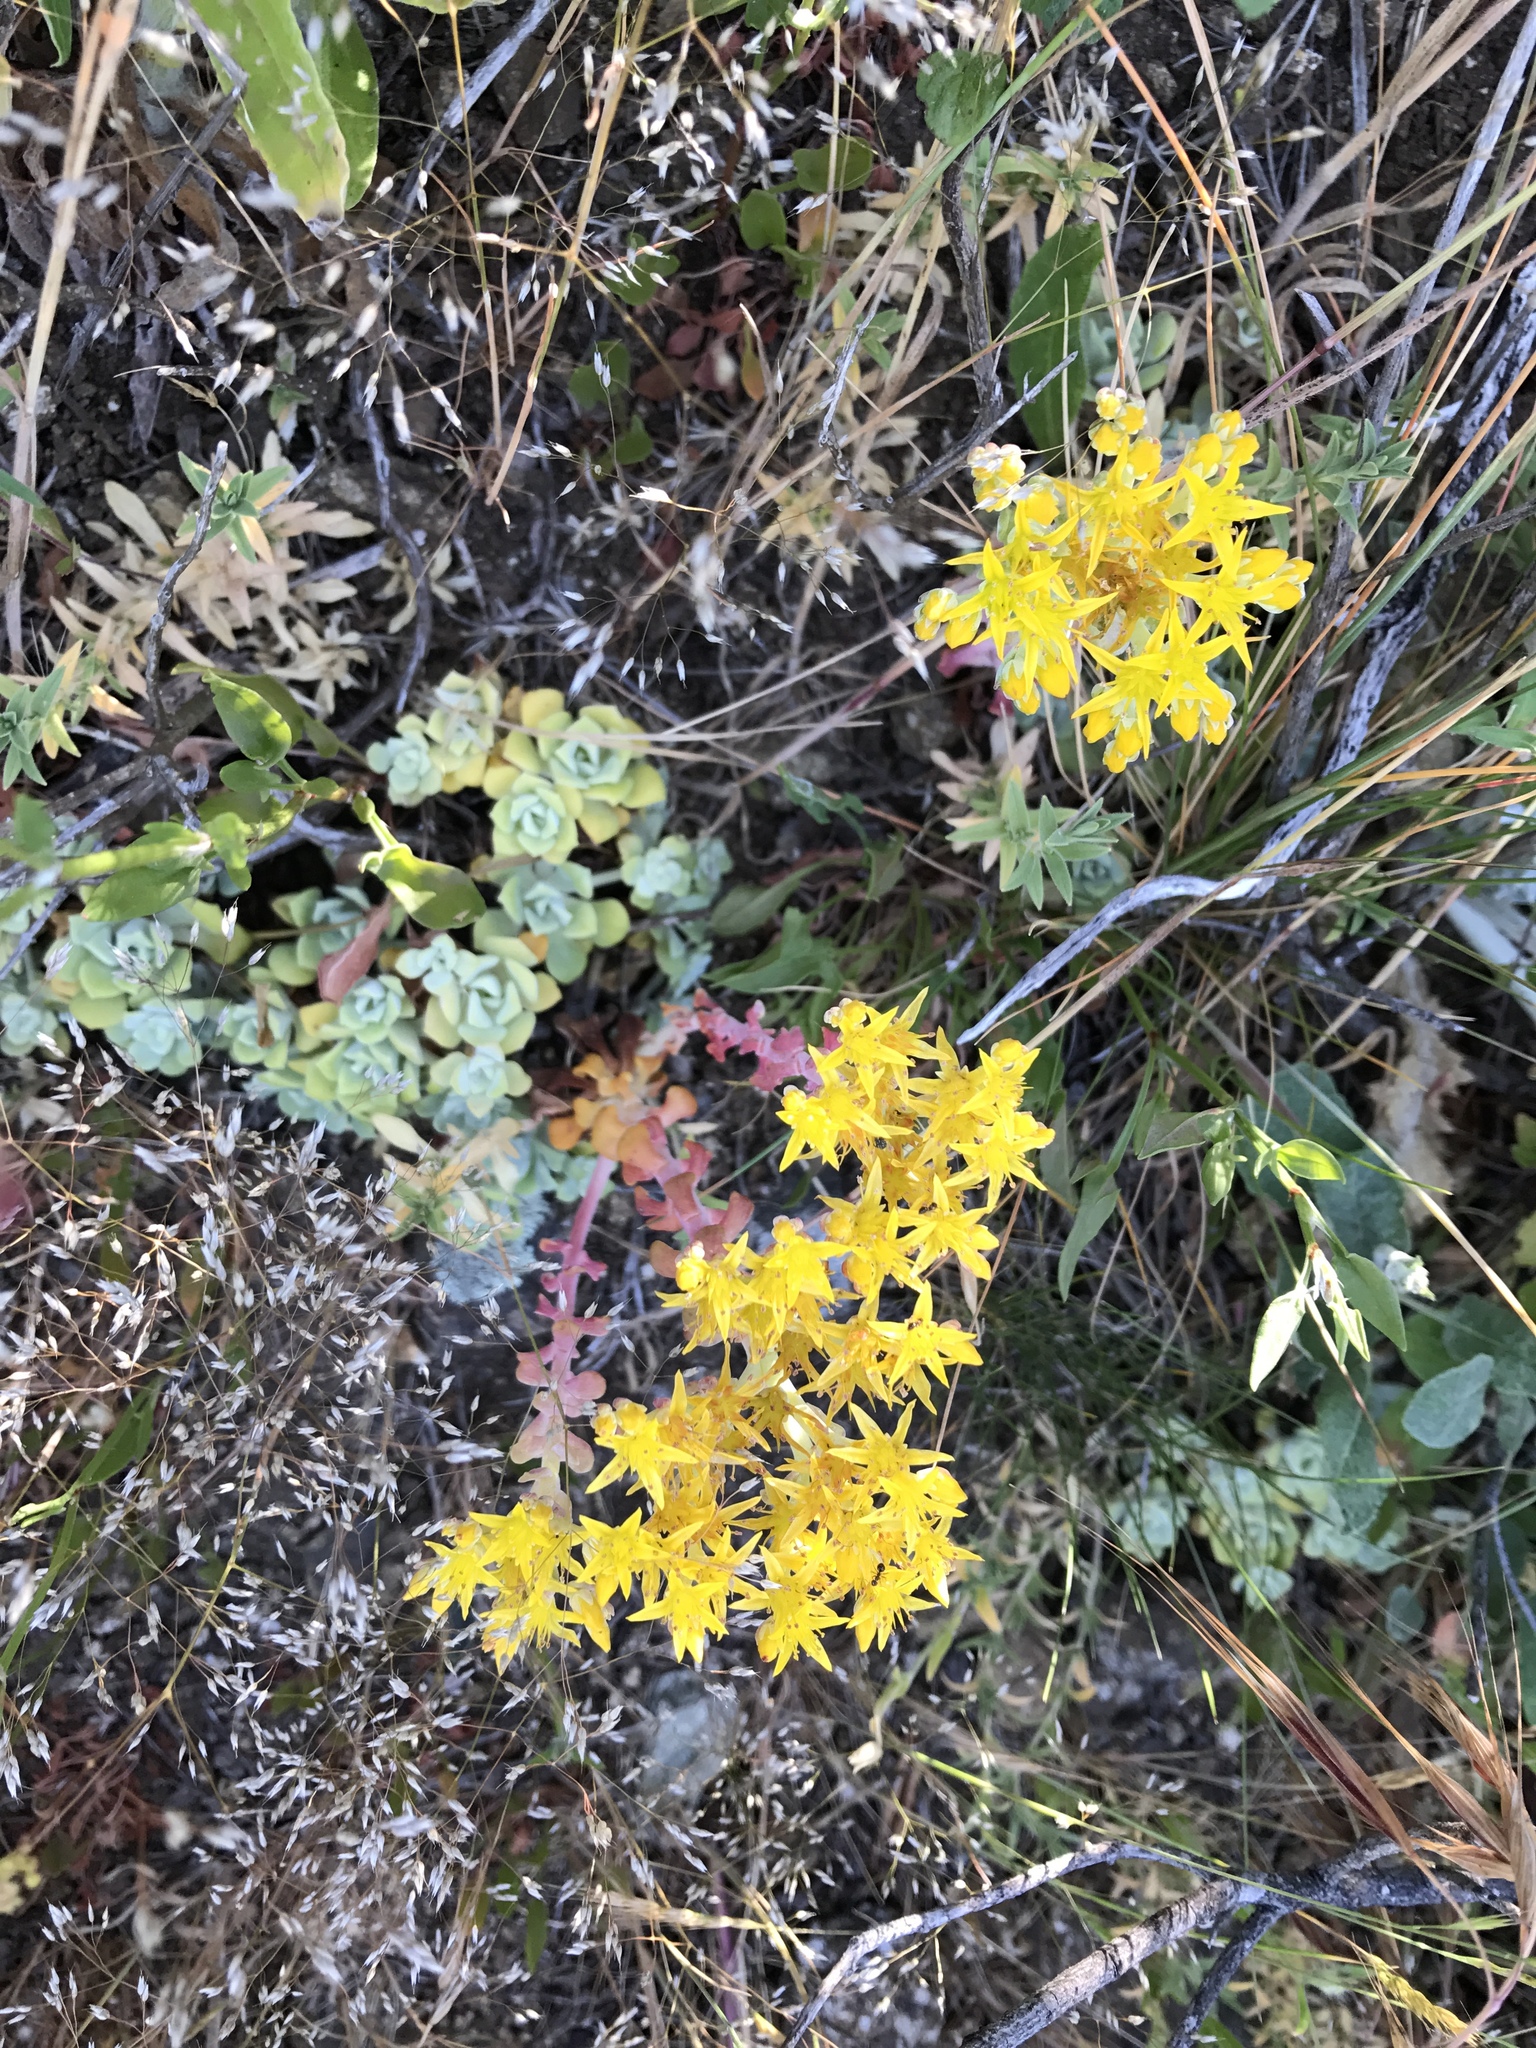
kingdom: Plantae
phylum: Tracheophyta
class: Magnoliopsida
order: Saxifragales
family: Crassulaceae
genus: Sedum
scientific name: Sedum spathulifolium
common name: Colorado stonecrop
